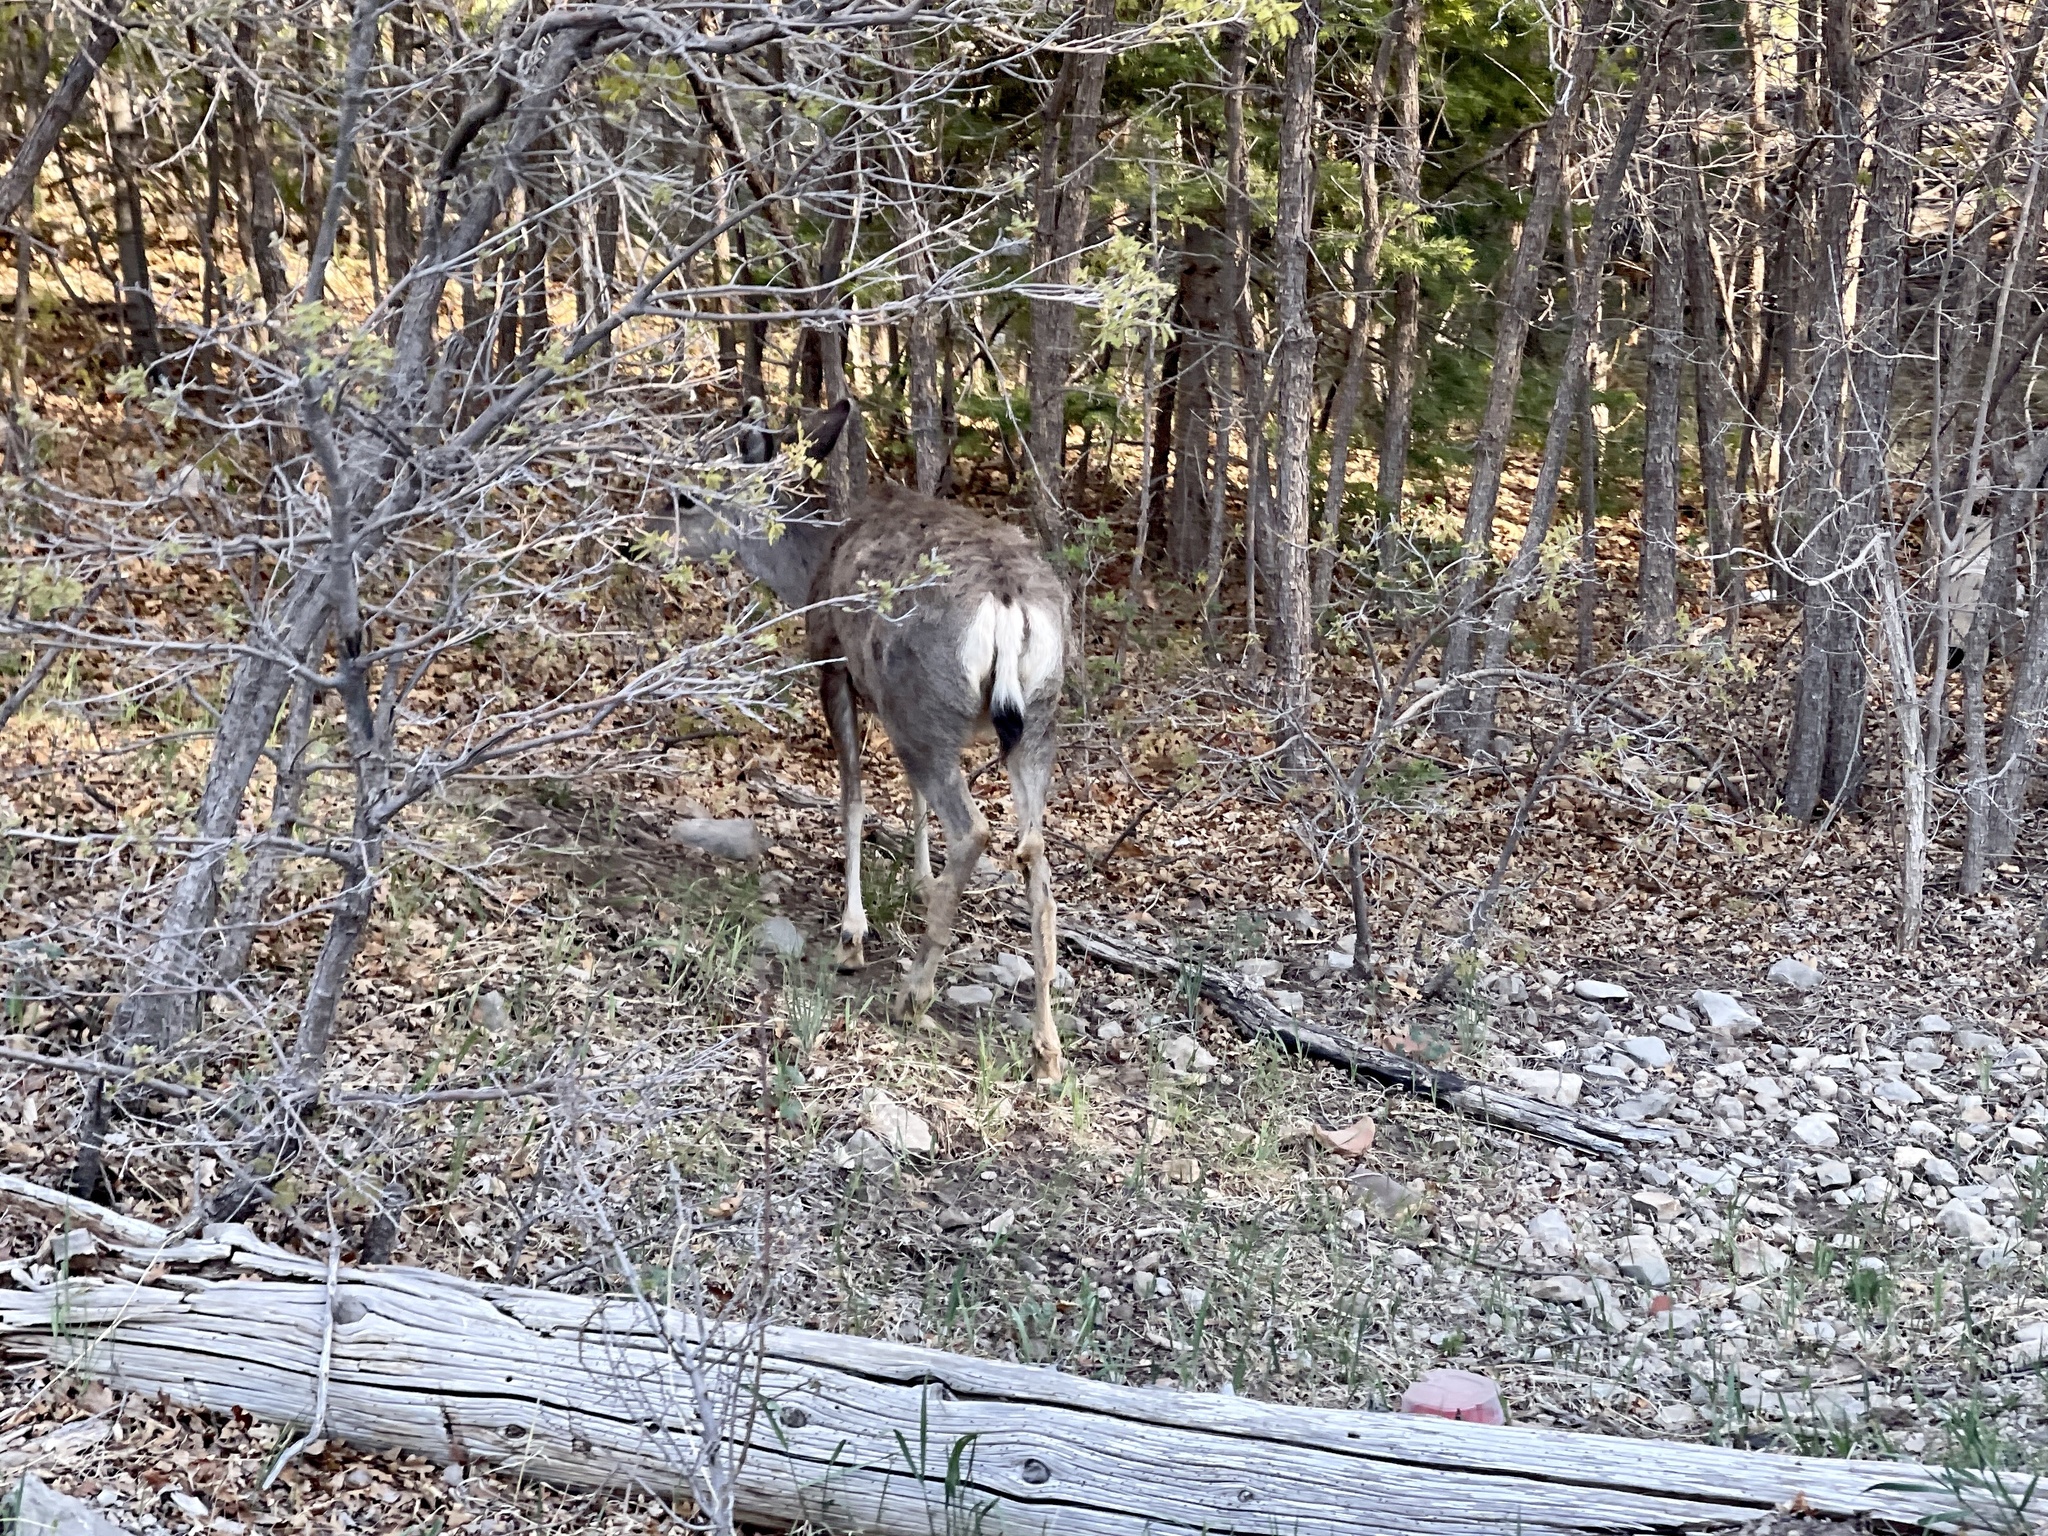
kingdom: Animalia
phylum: Chordata
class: Mammalia
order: Artiodactyla
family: Cervidae
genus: Odocoileus
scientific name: Odocoileus hemionus
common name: Mule deer
